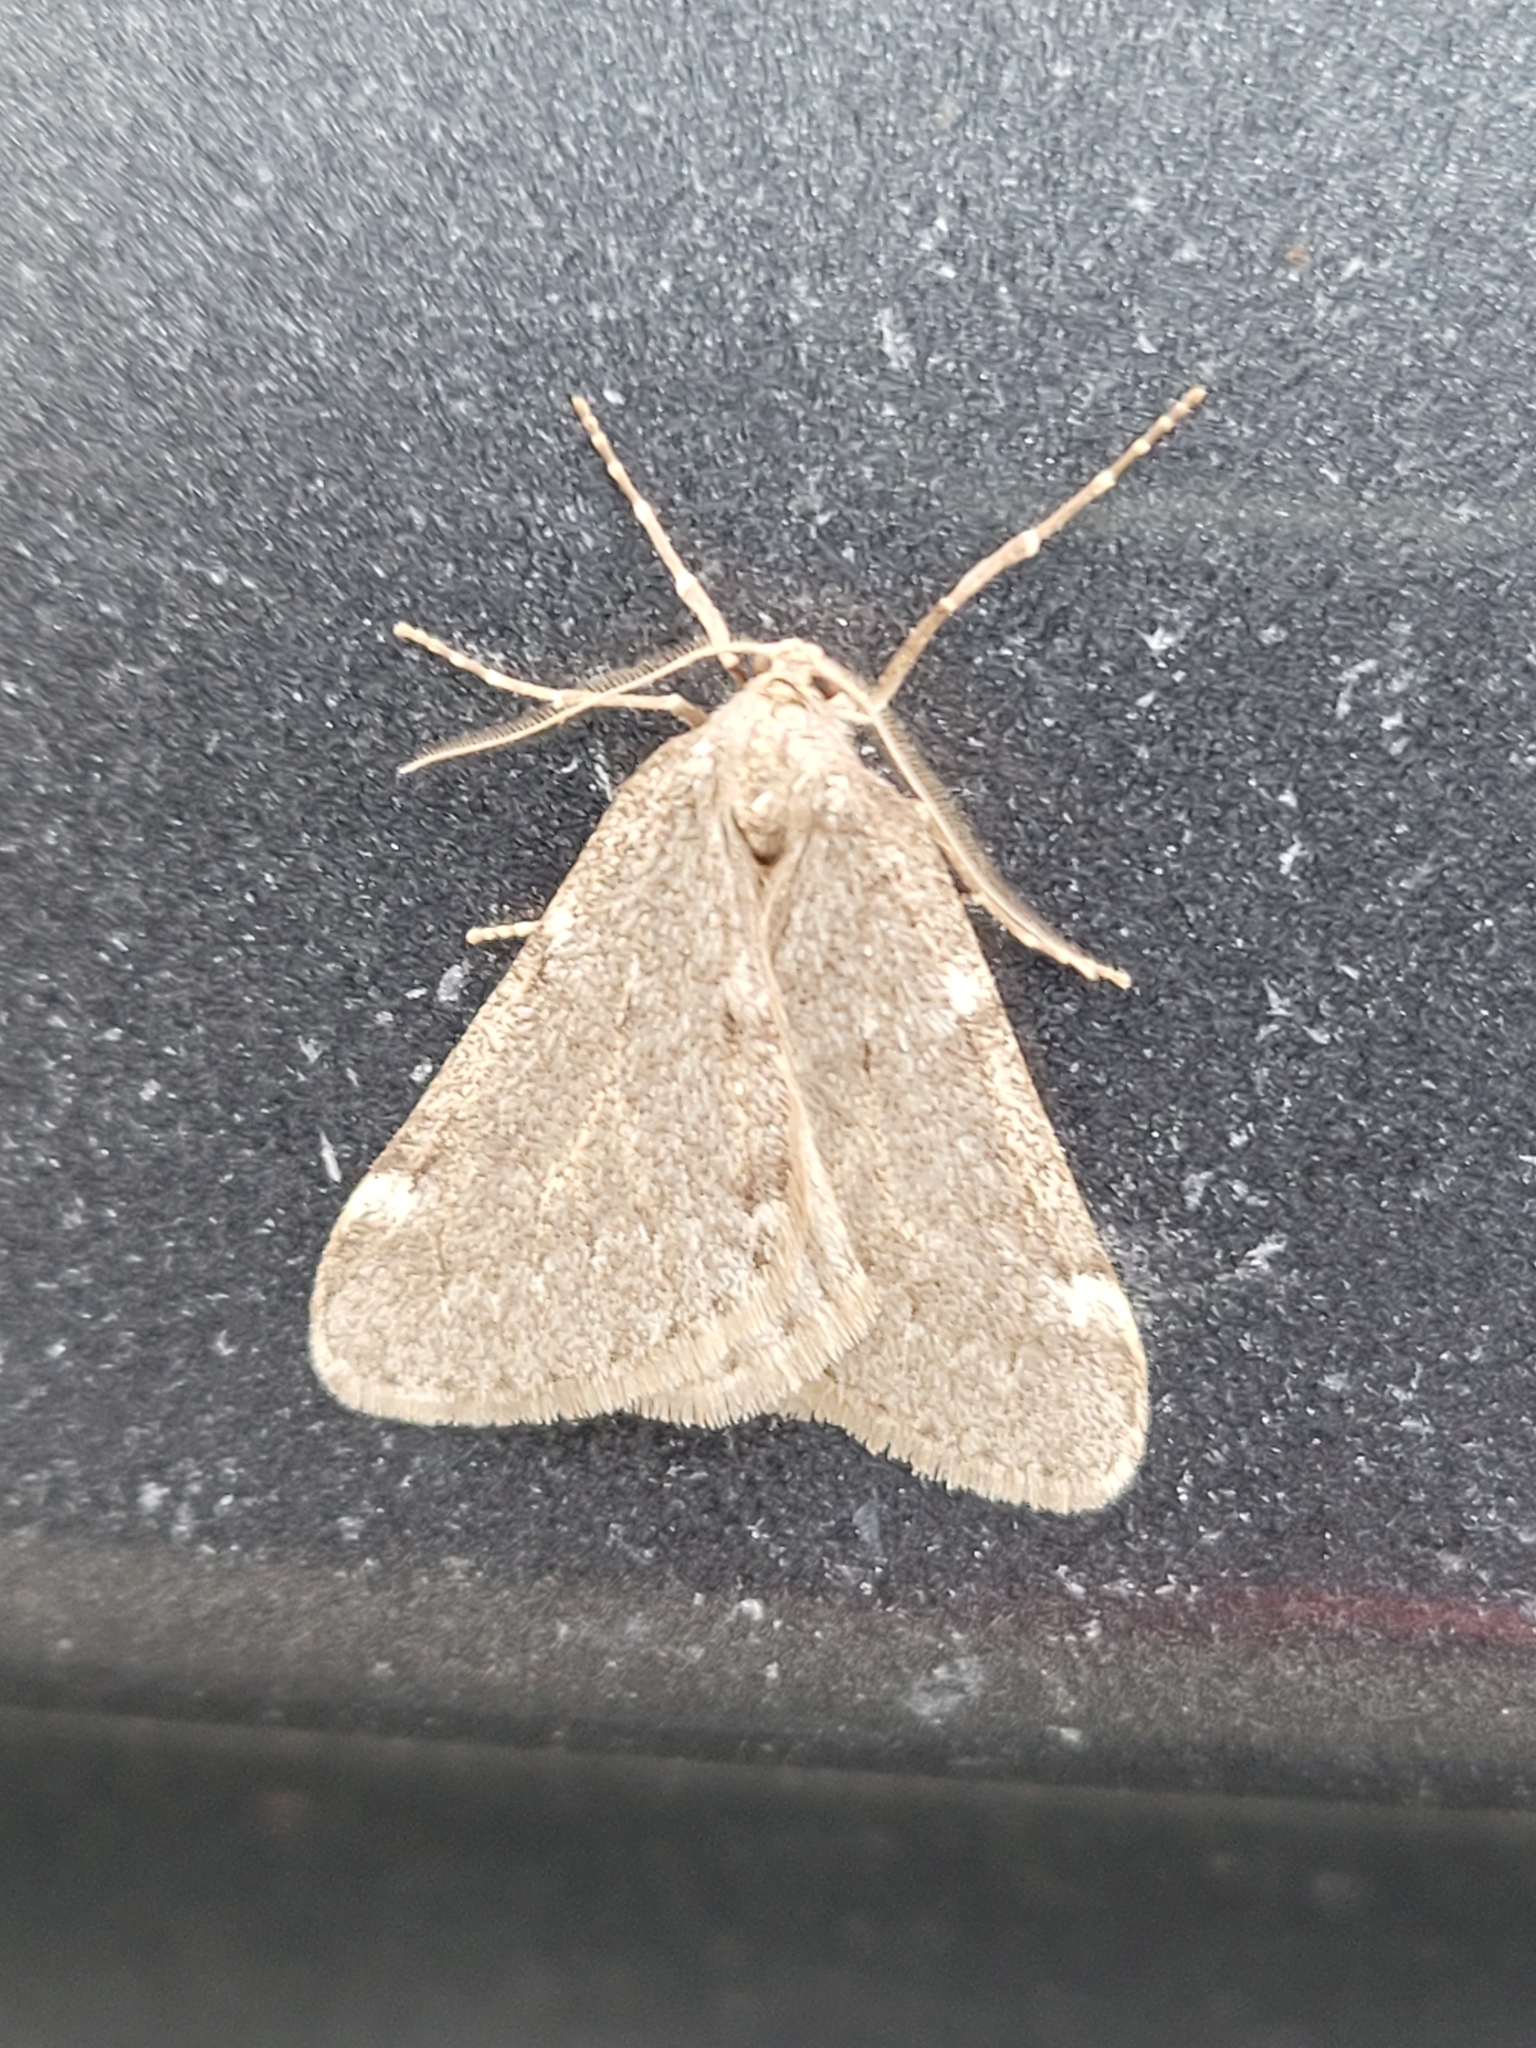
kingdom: Animalia
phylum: Arthropoda
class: Insecta
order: Lepidoptera
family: Geometridae
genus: Alsophila
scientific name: Alsophila pometaria
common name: Fall cankerworm
